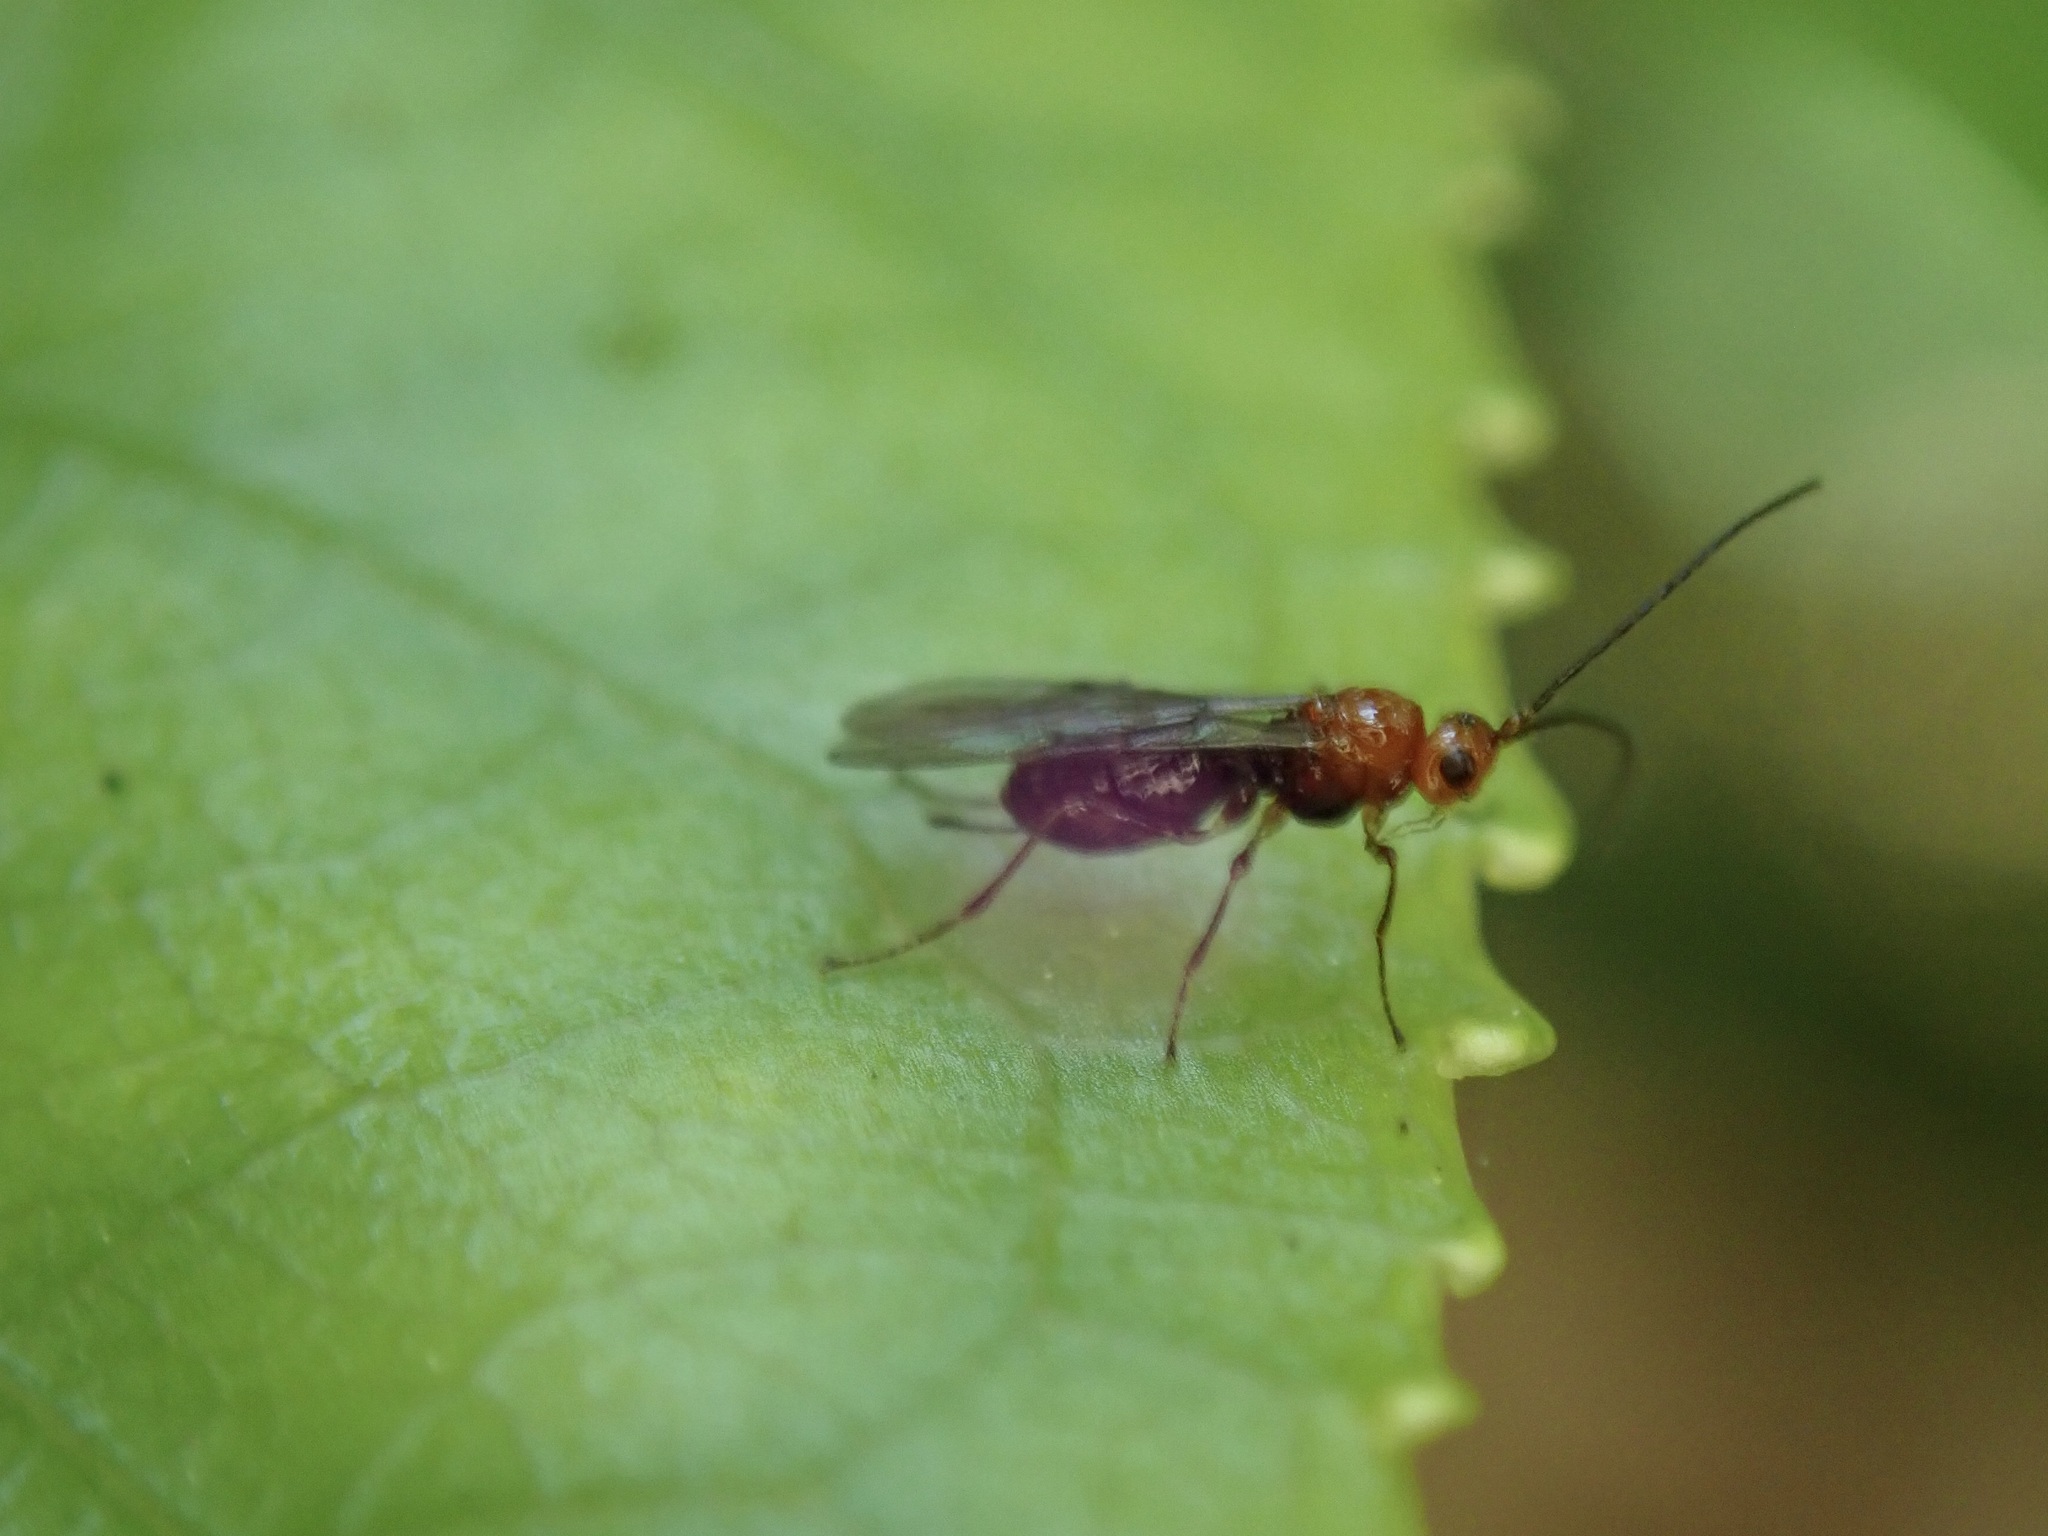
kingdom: Animalia
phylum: Arthropoda
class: Insecta
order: Hymenoptera
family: Braconidae
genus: Asobara
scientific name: Asobara antipoda
